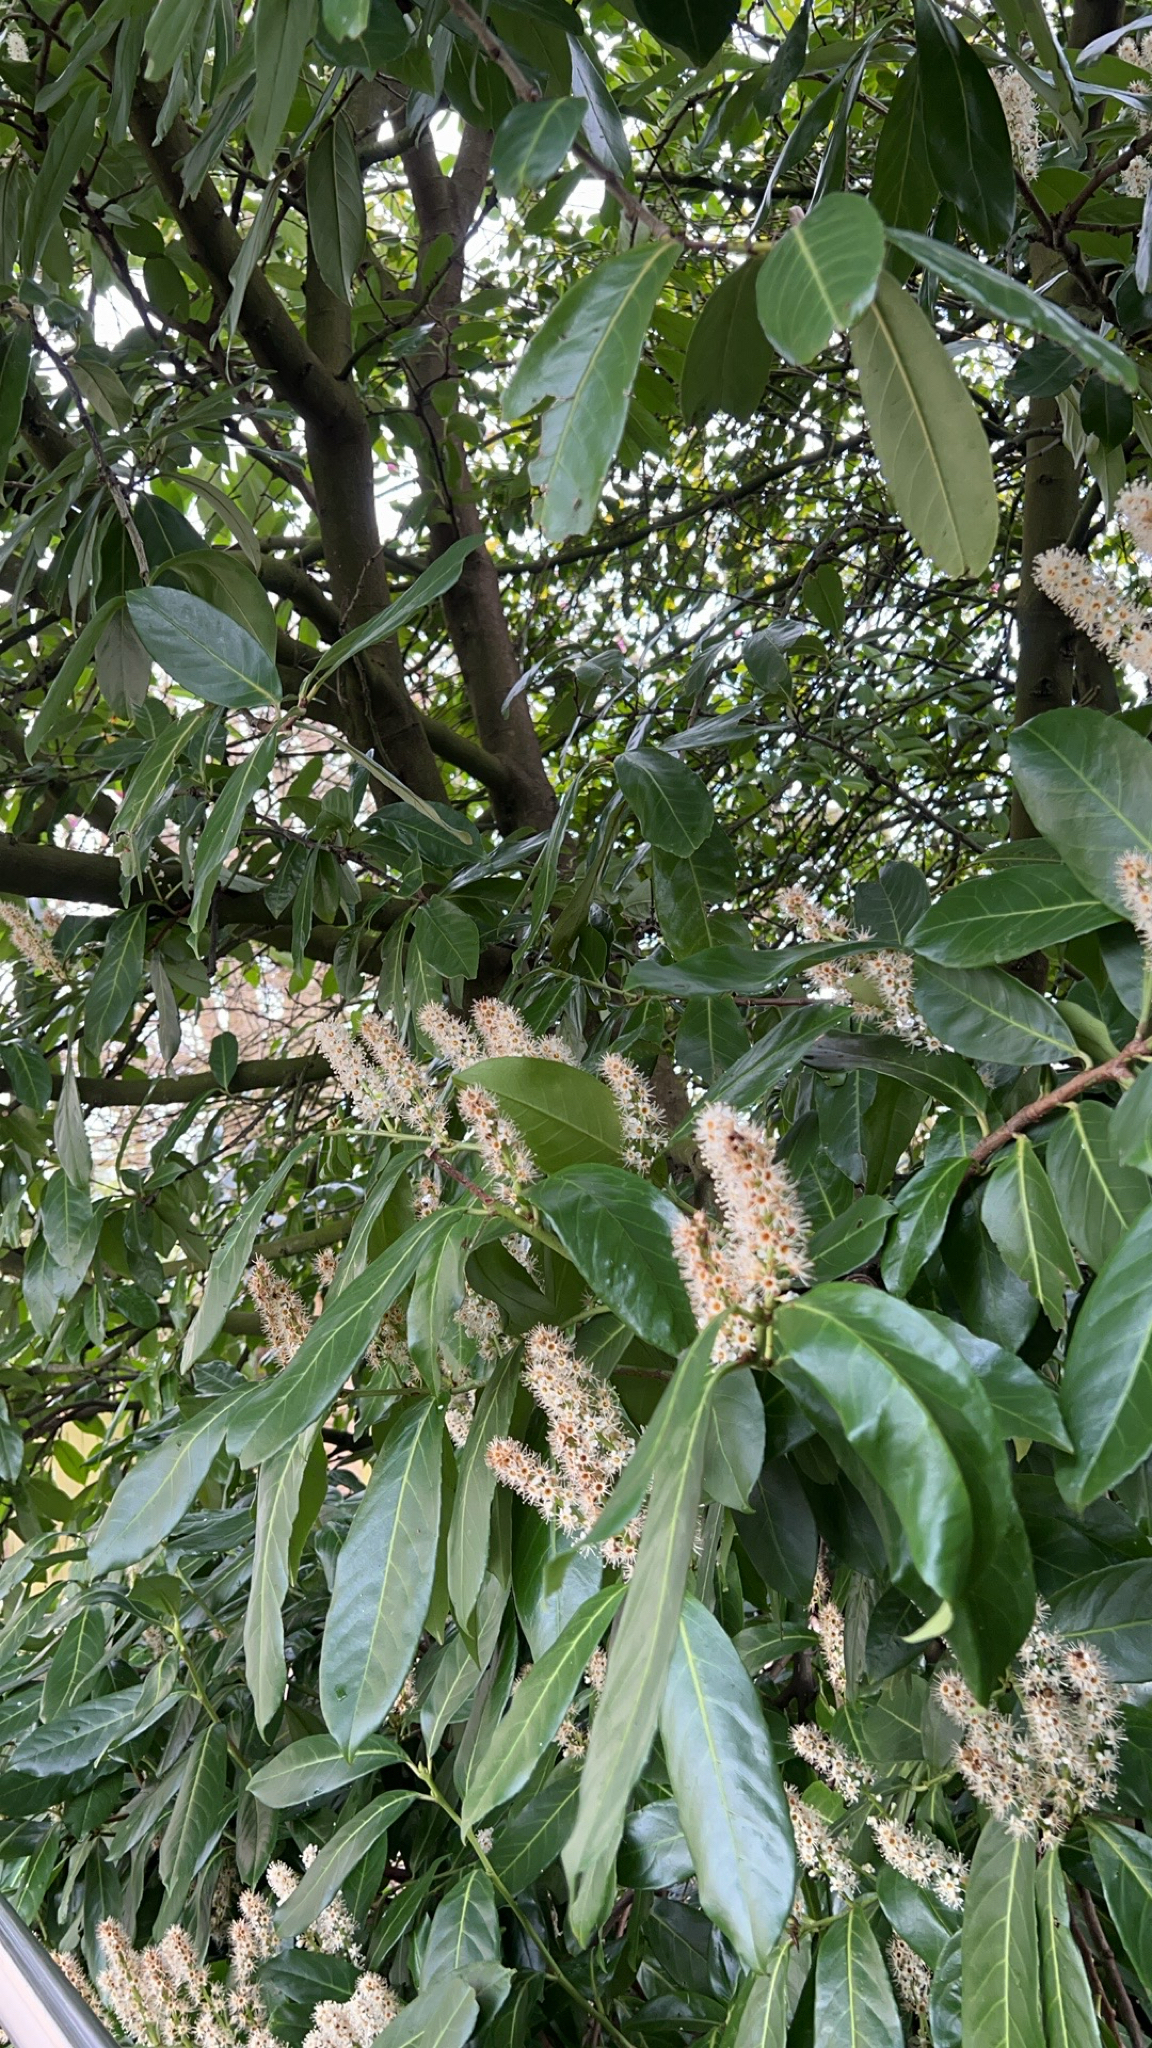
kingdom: Plantae
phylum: Tracheophyta
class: Magnoliopsida
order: Rosales
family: Rosaceae
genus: Prunus
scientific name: Prunus laurocerasus
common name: Cherry laurel
